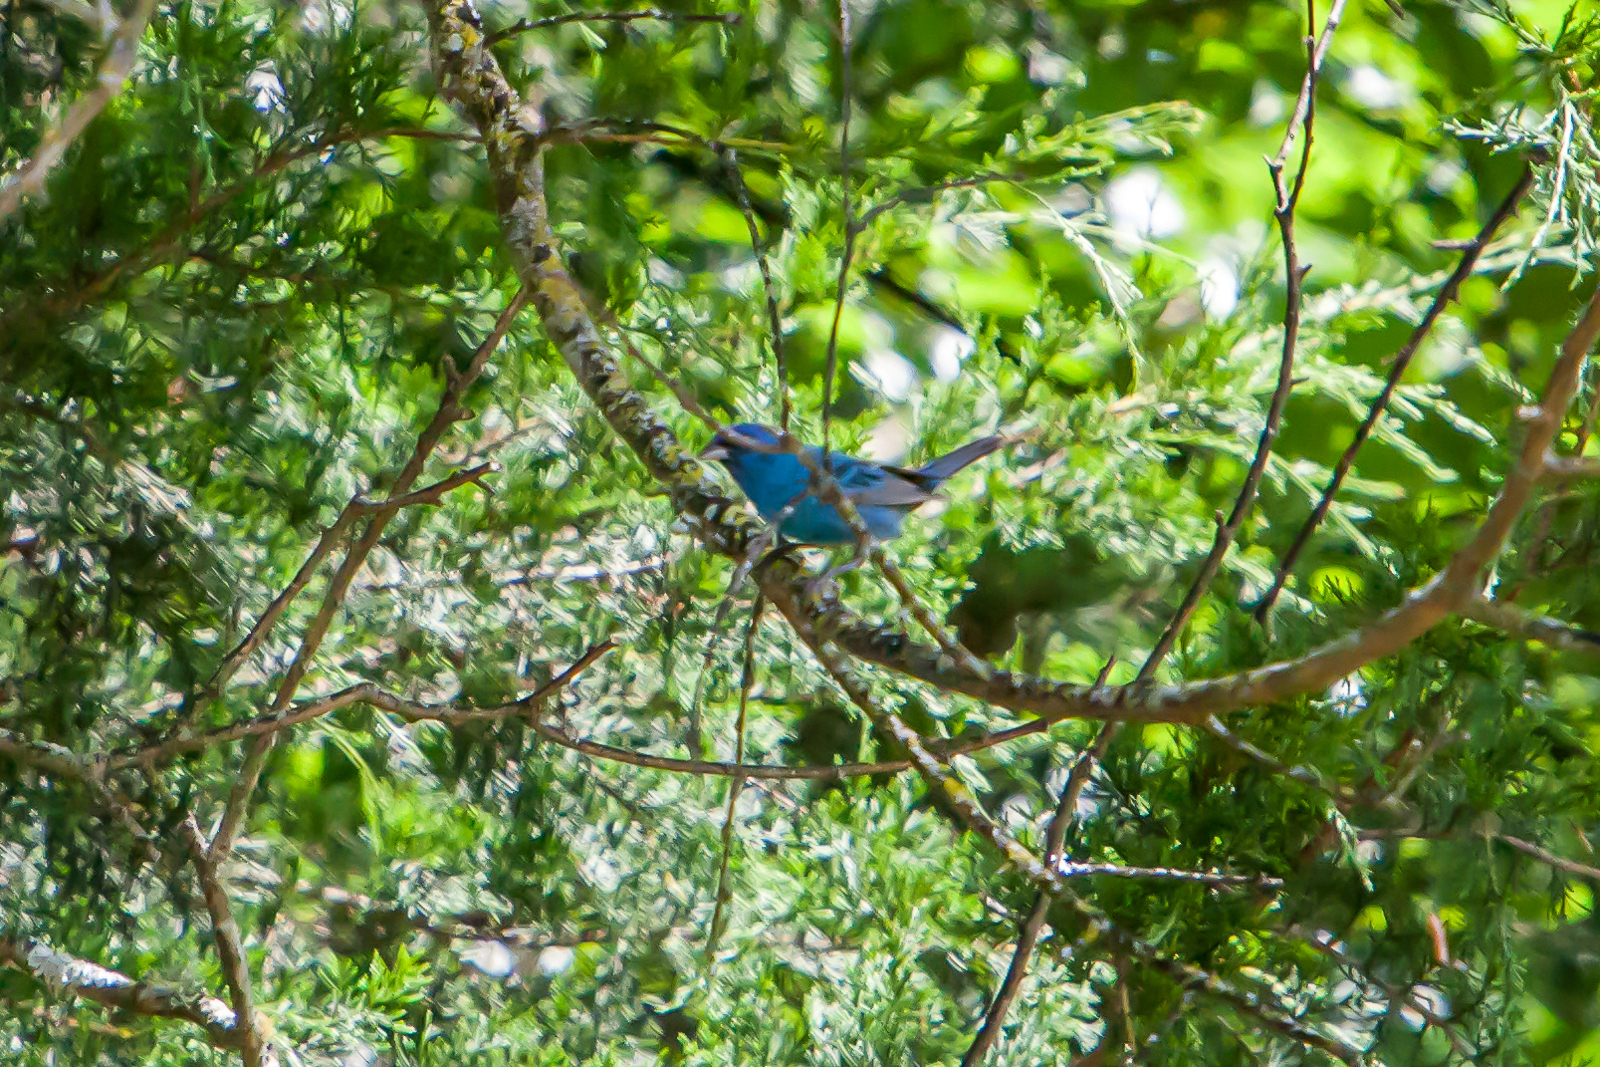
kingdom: Animalia
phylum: Chordata
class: Aves
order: Passeriformes
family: Cardinalidae
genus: Passerina
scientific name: Passerina cyanea
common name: Indigo bunting
